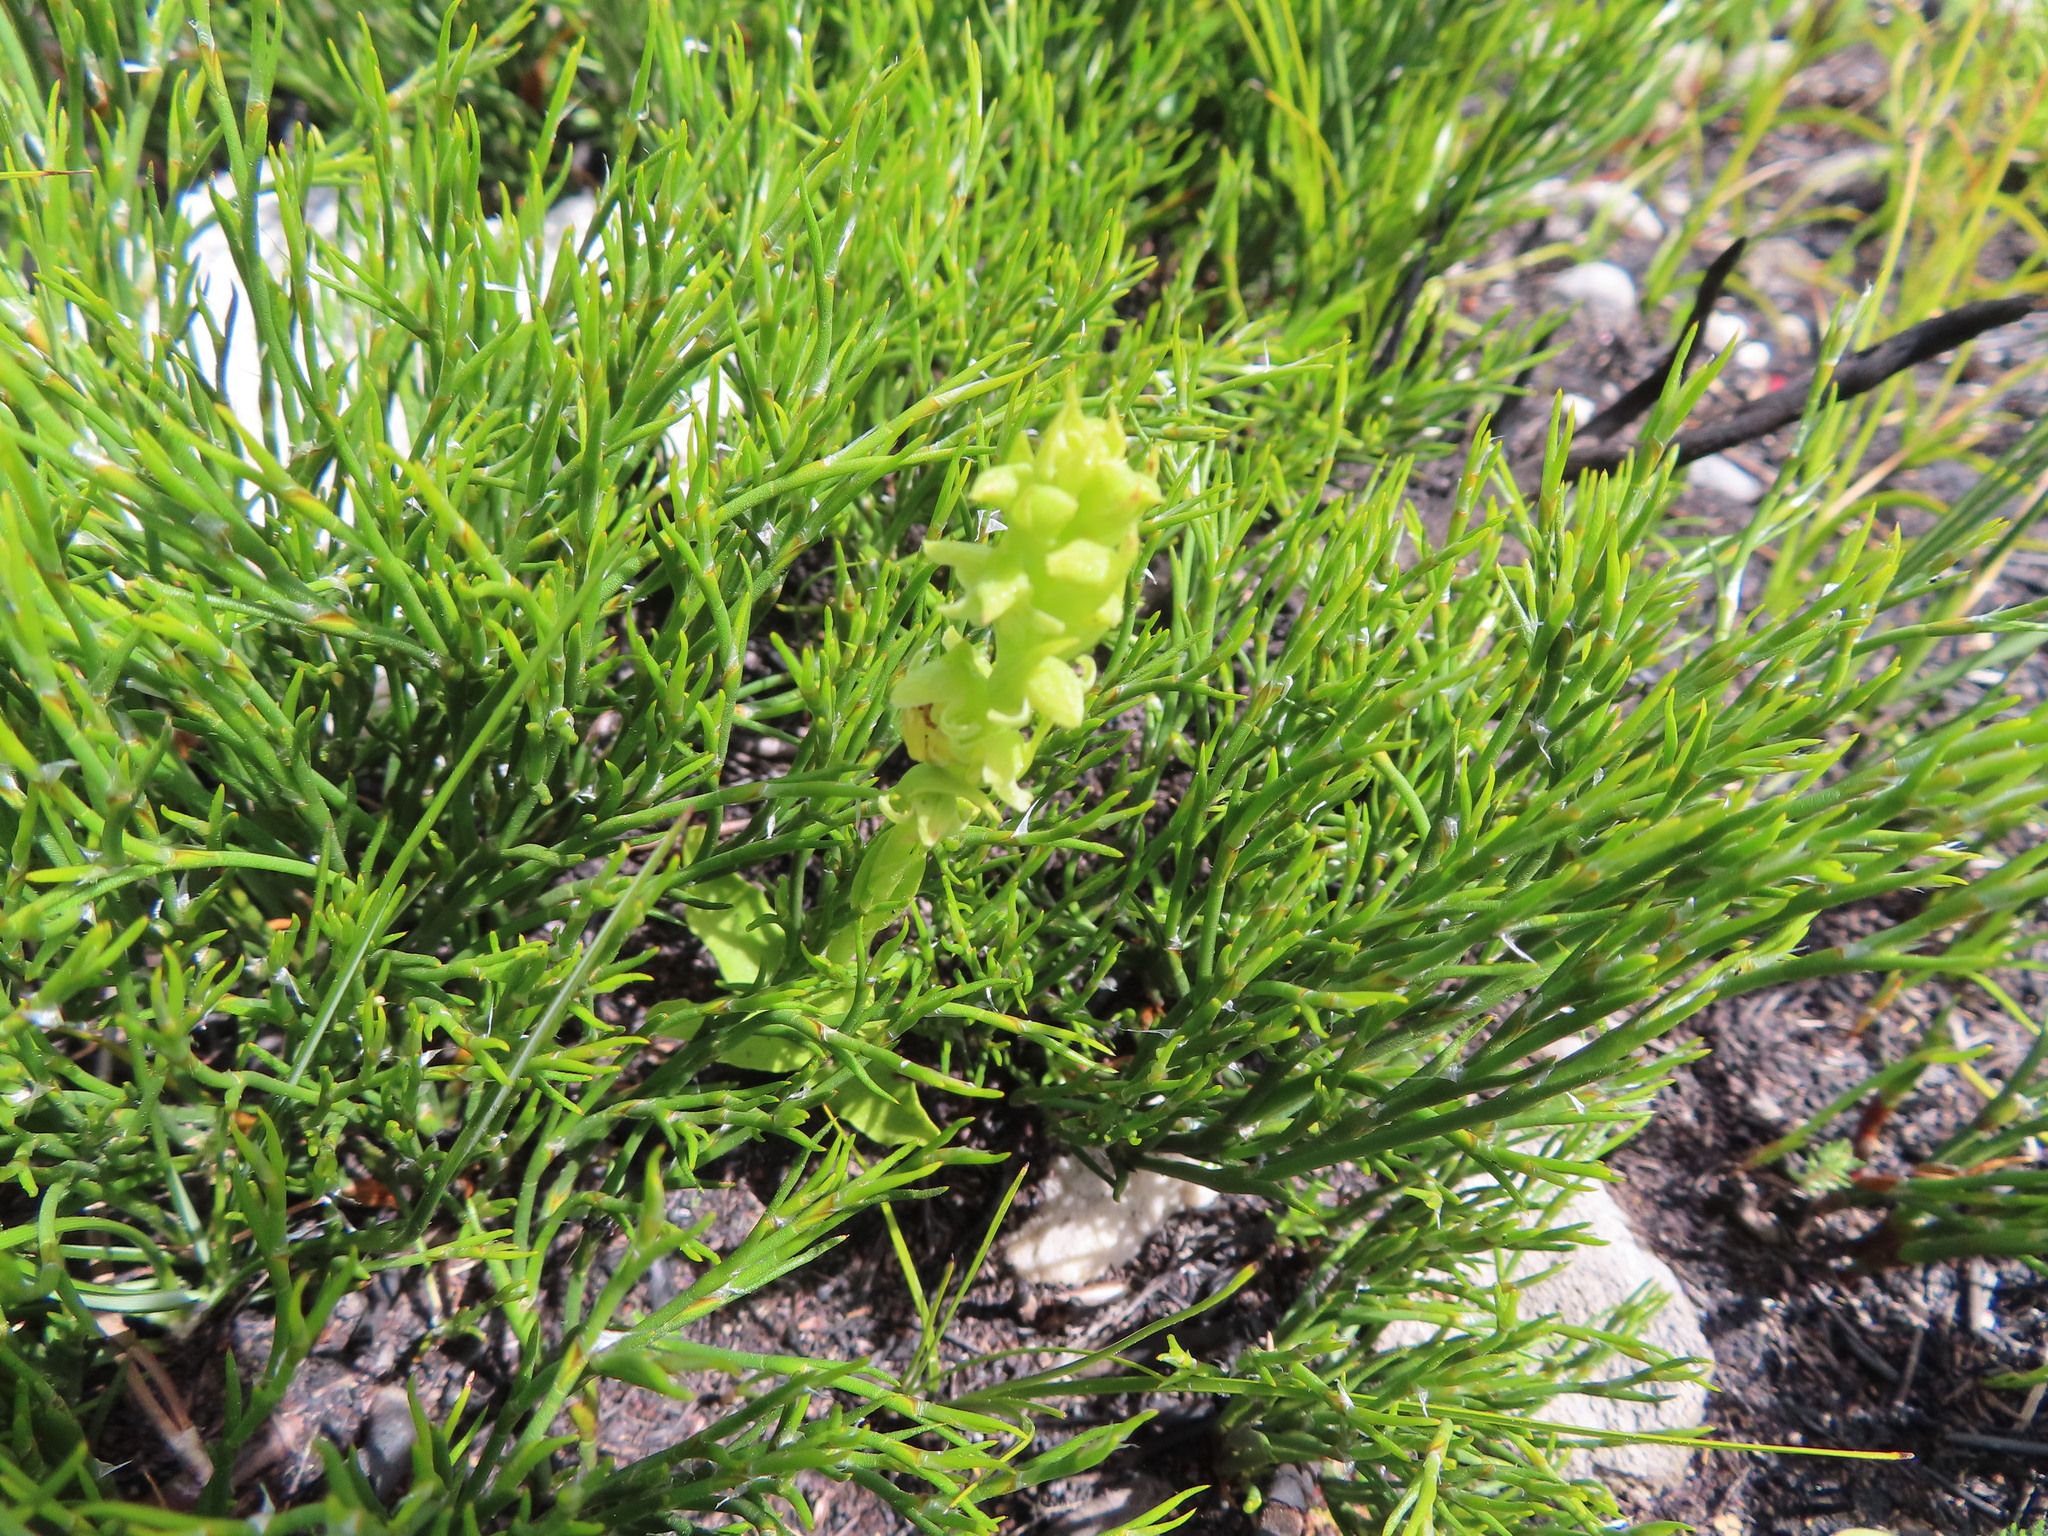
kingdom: Plantae
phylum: Tracheophyta
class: Liliopsida
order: Asparagales
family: Orchidaceae
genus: Disa
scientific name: Disa cylindrica
